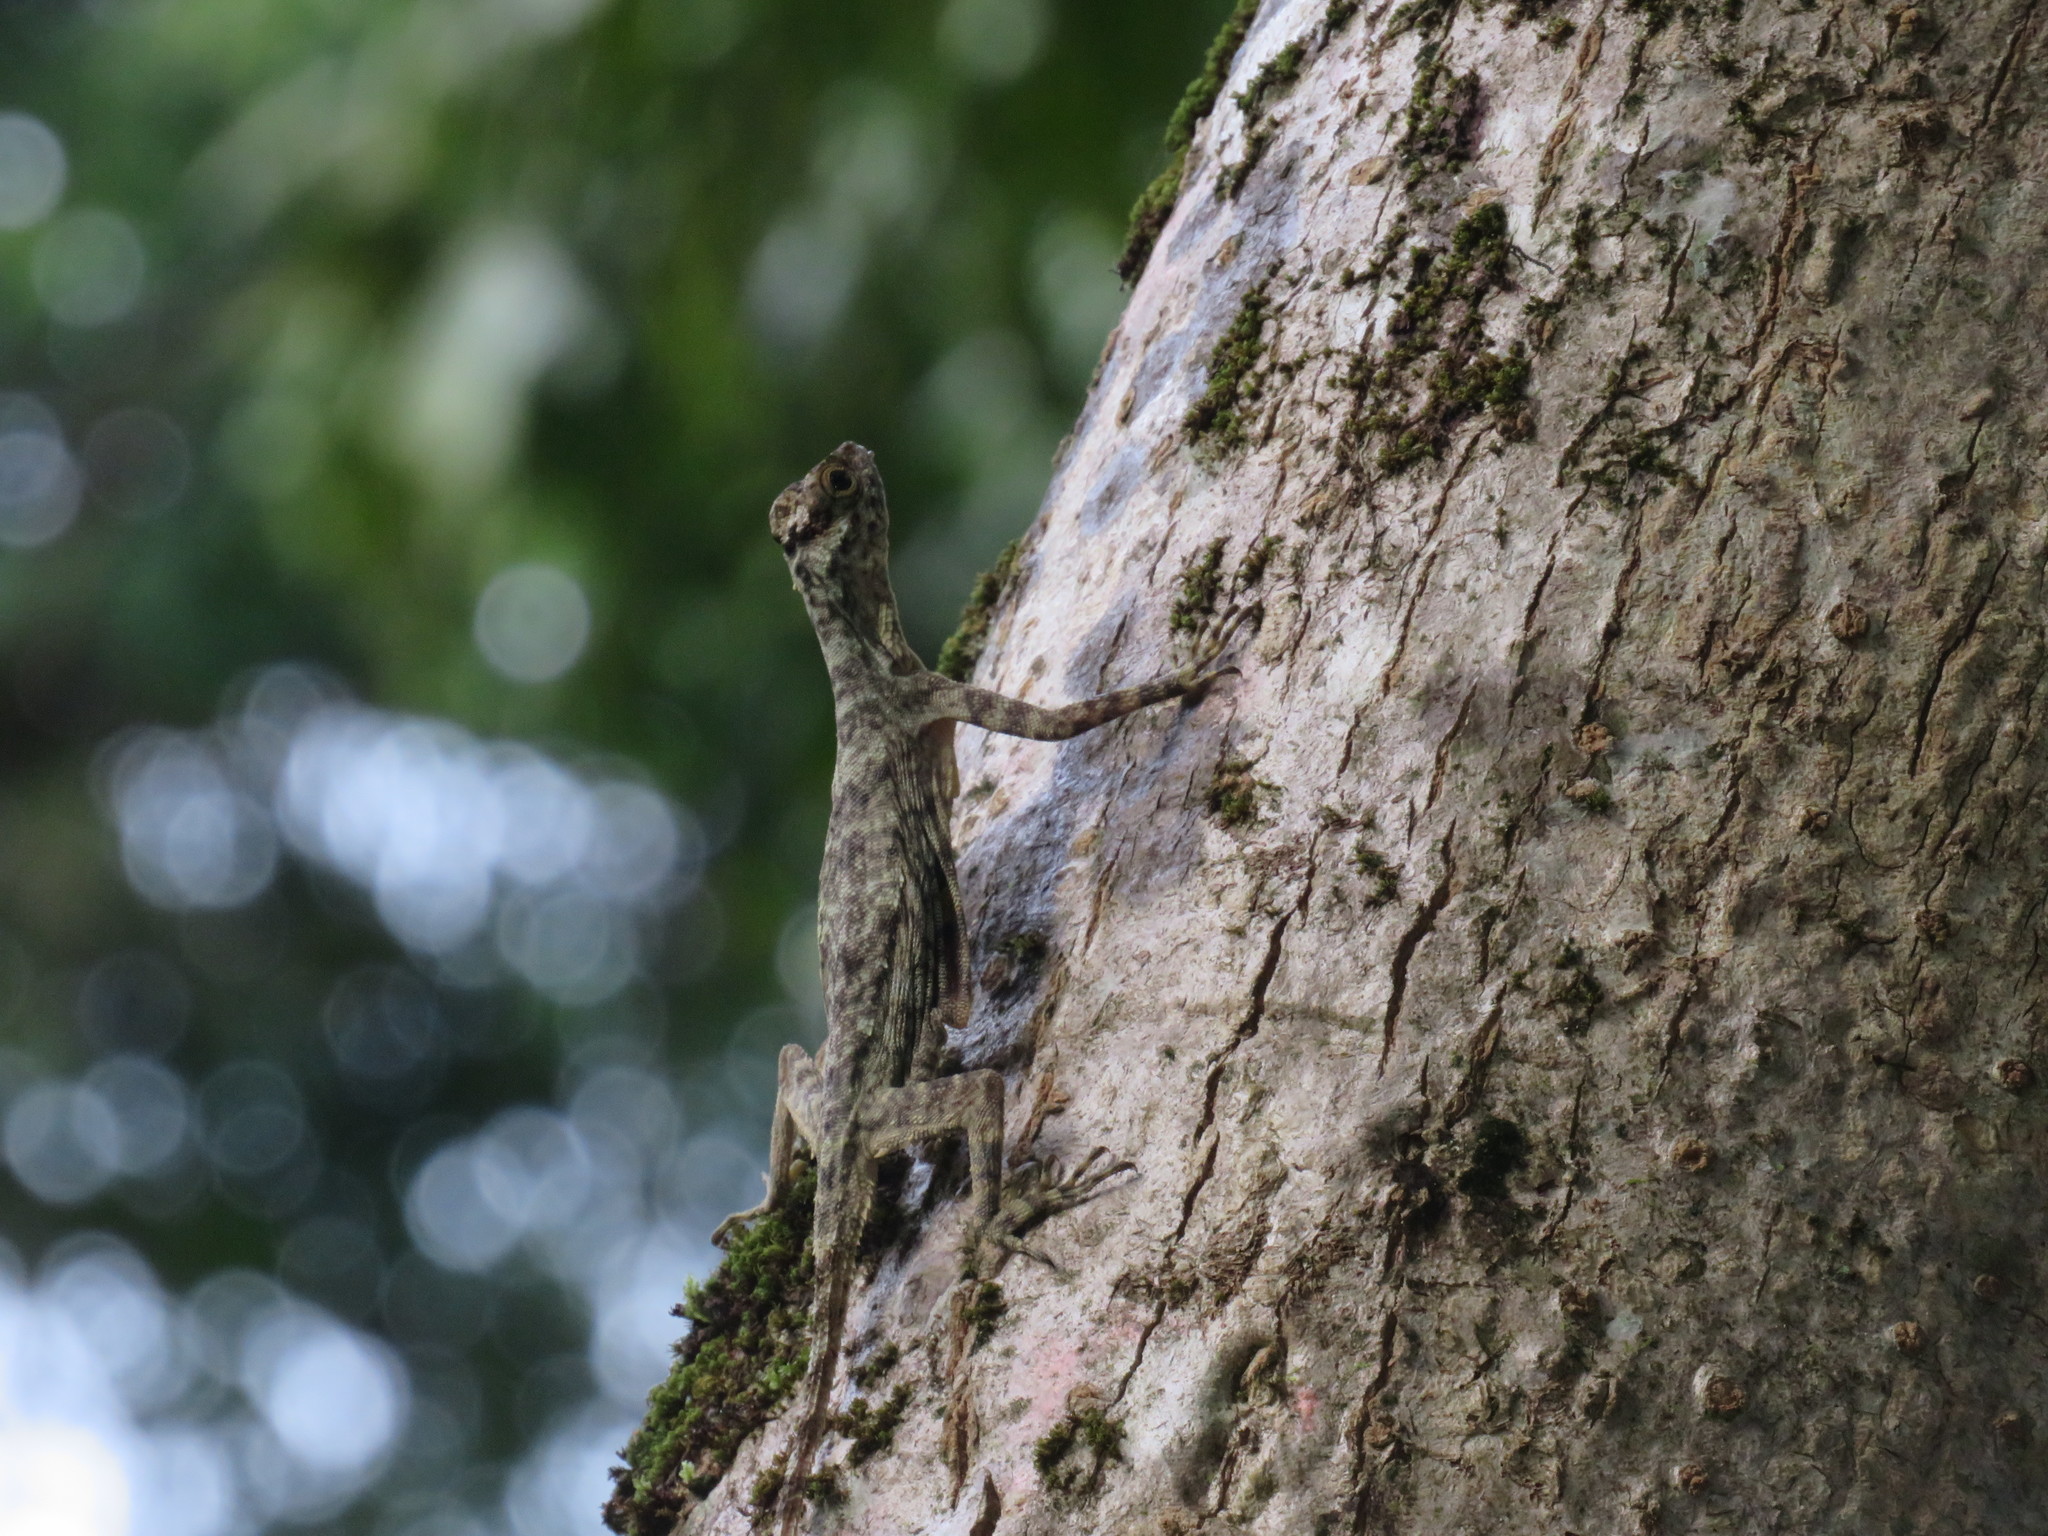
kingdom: Animalia
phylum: Chordata
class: Squamata
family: Agamidae
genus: Draco
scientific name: Draco taeniopterus
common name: Thai flying dragon
